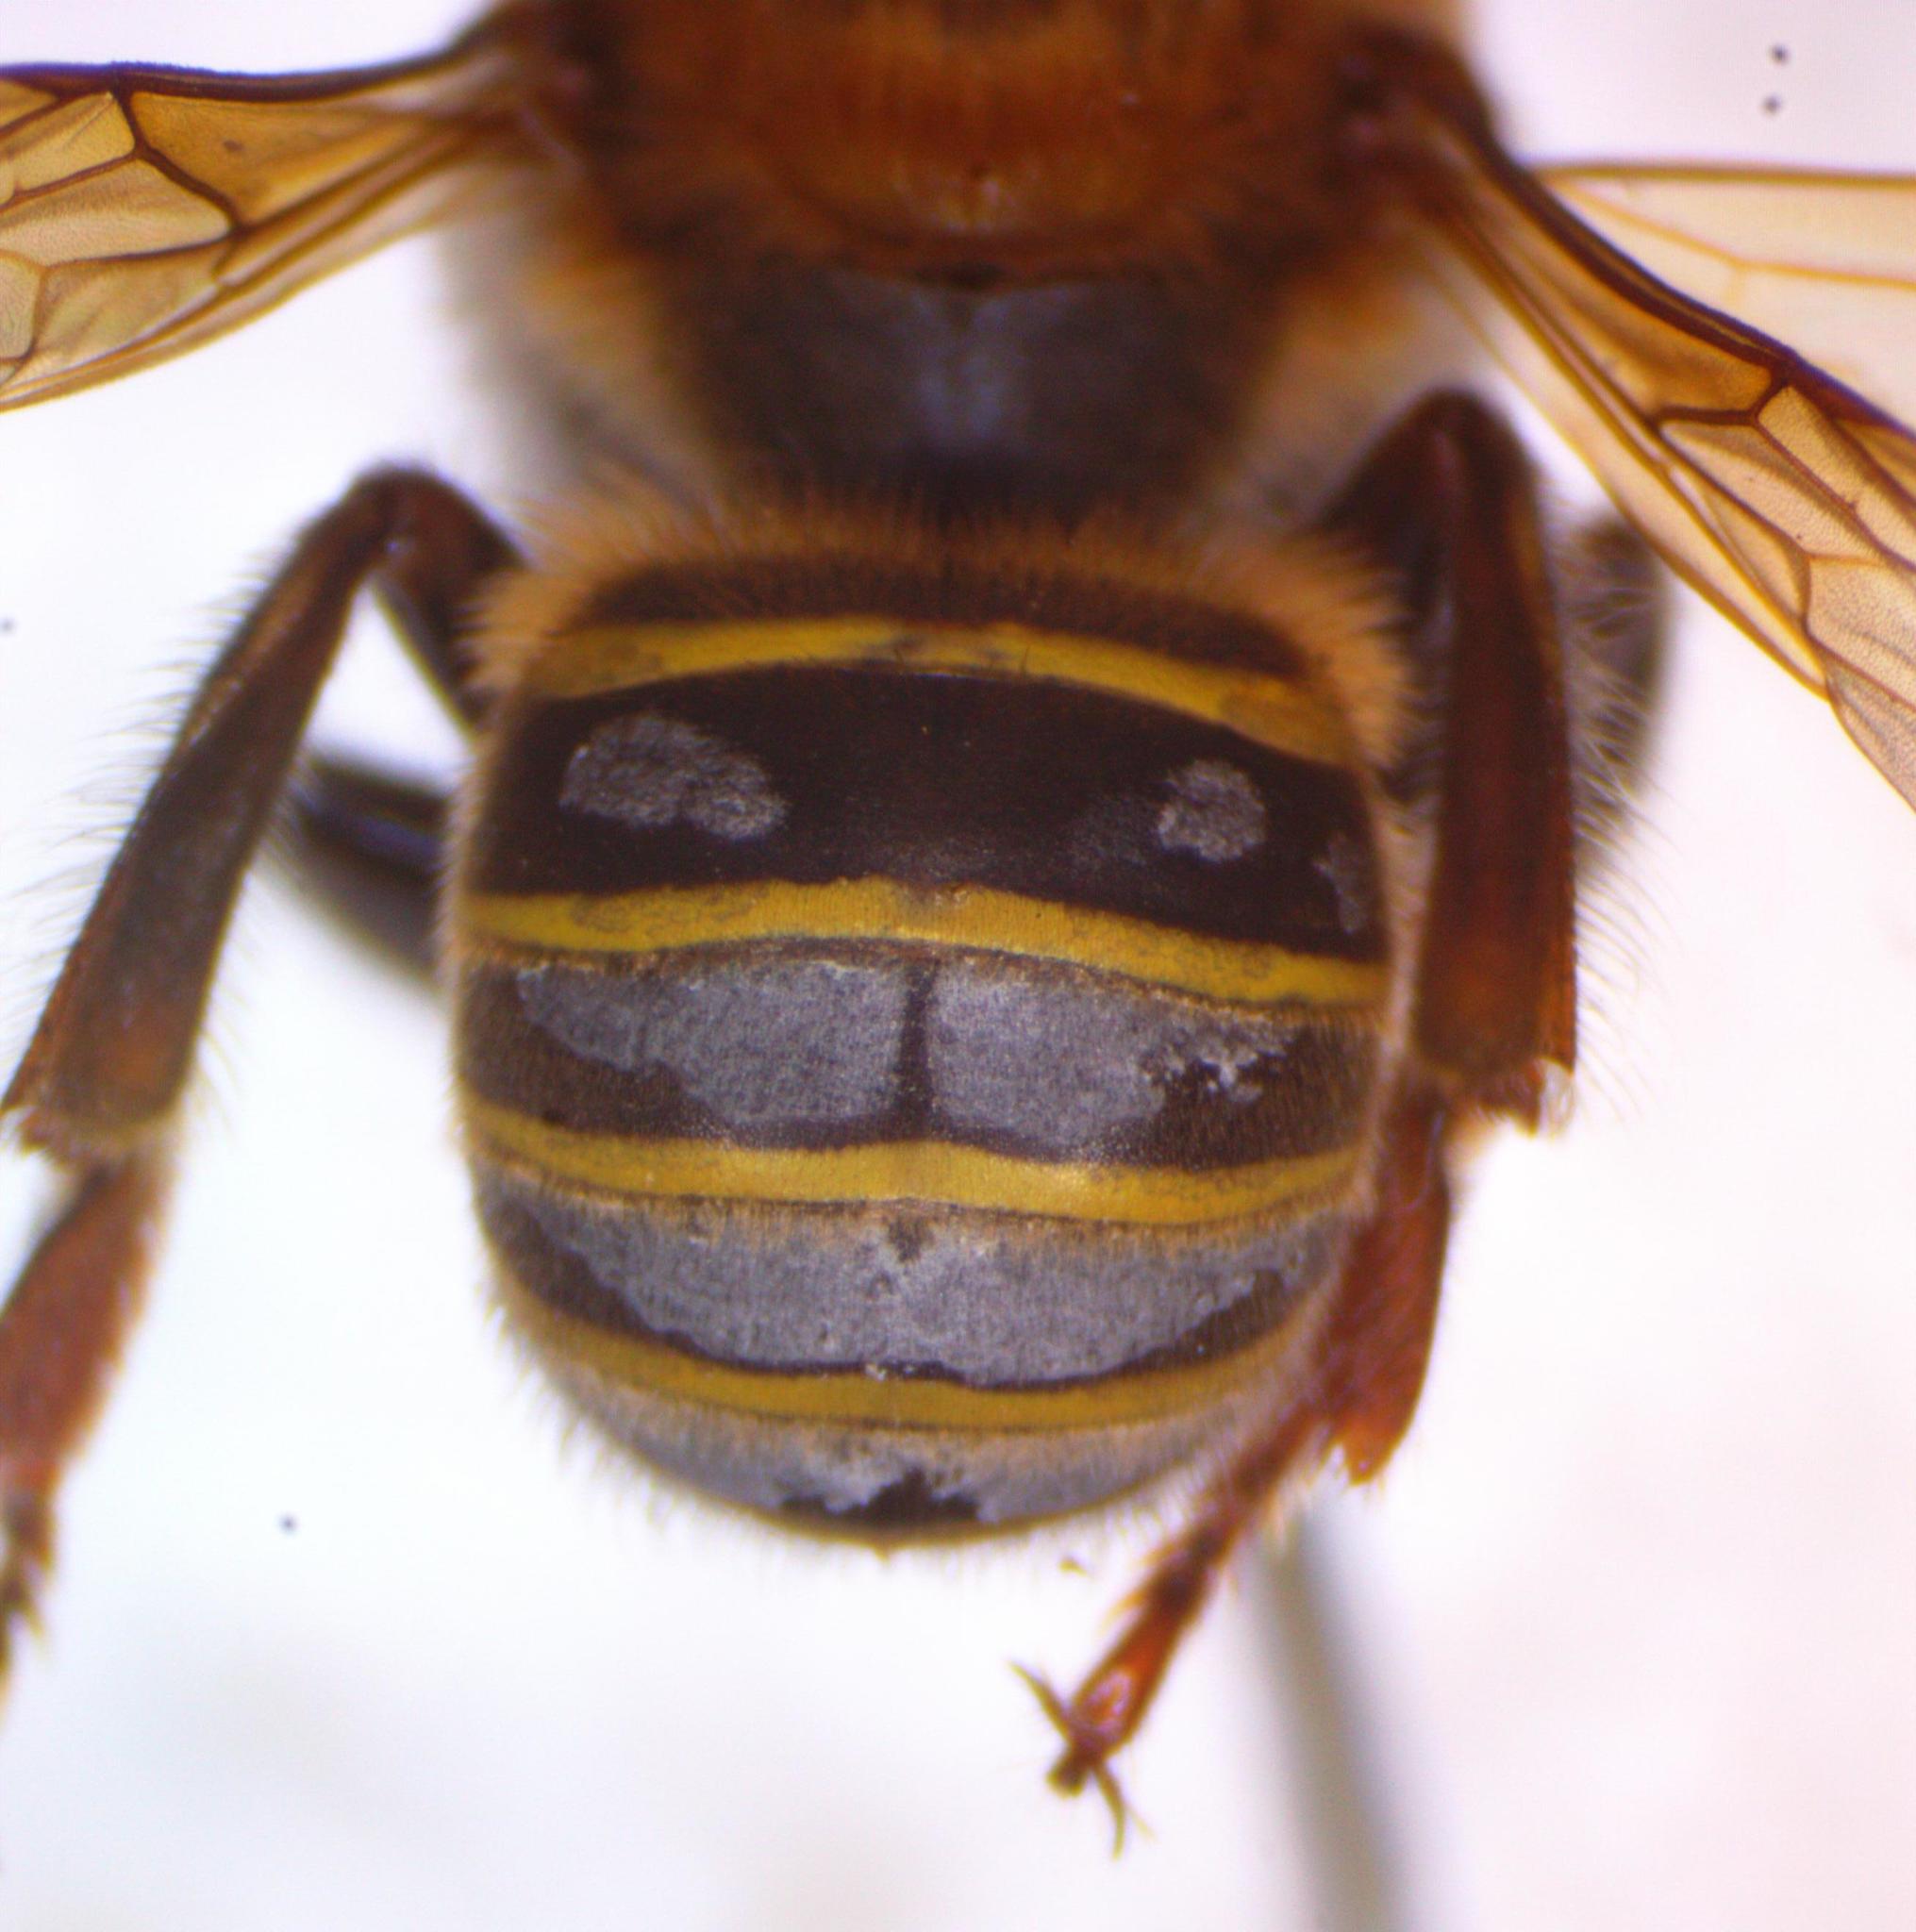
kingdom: Animalia
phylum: Arthropoda
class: Insecta
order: Hymenoptera
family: Apidae
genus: Melipona
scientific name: Melipona beecheii
